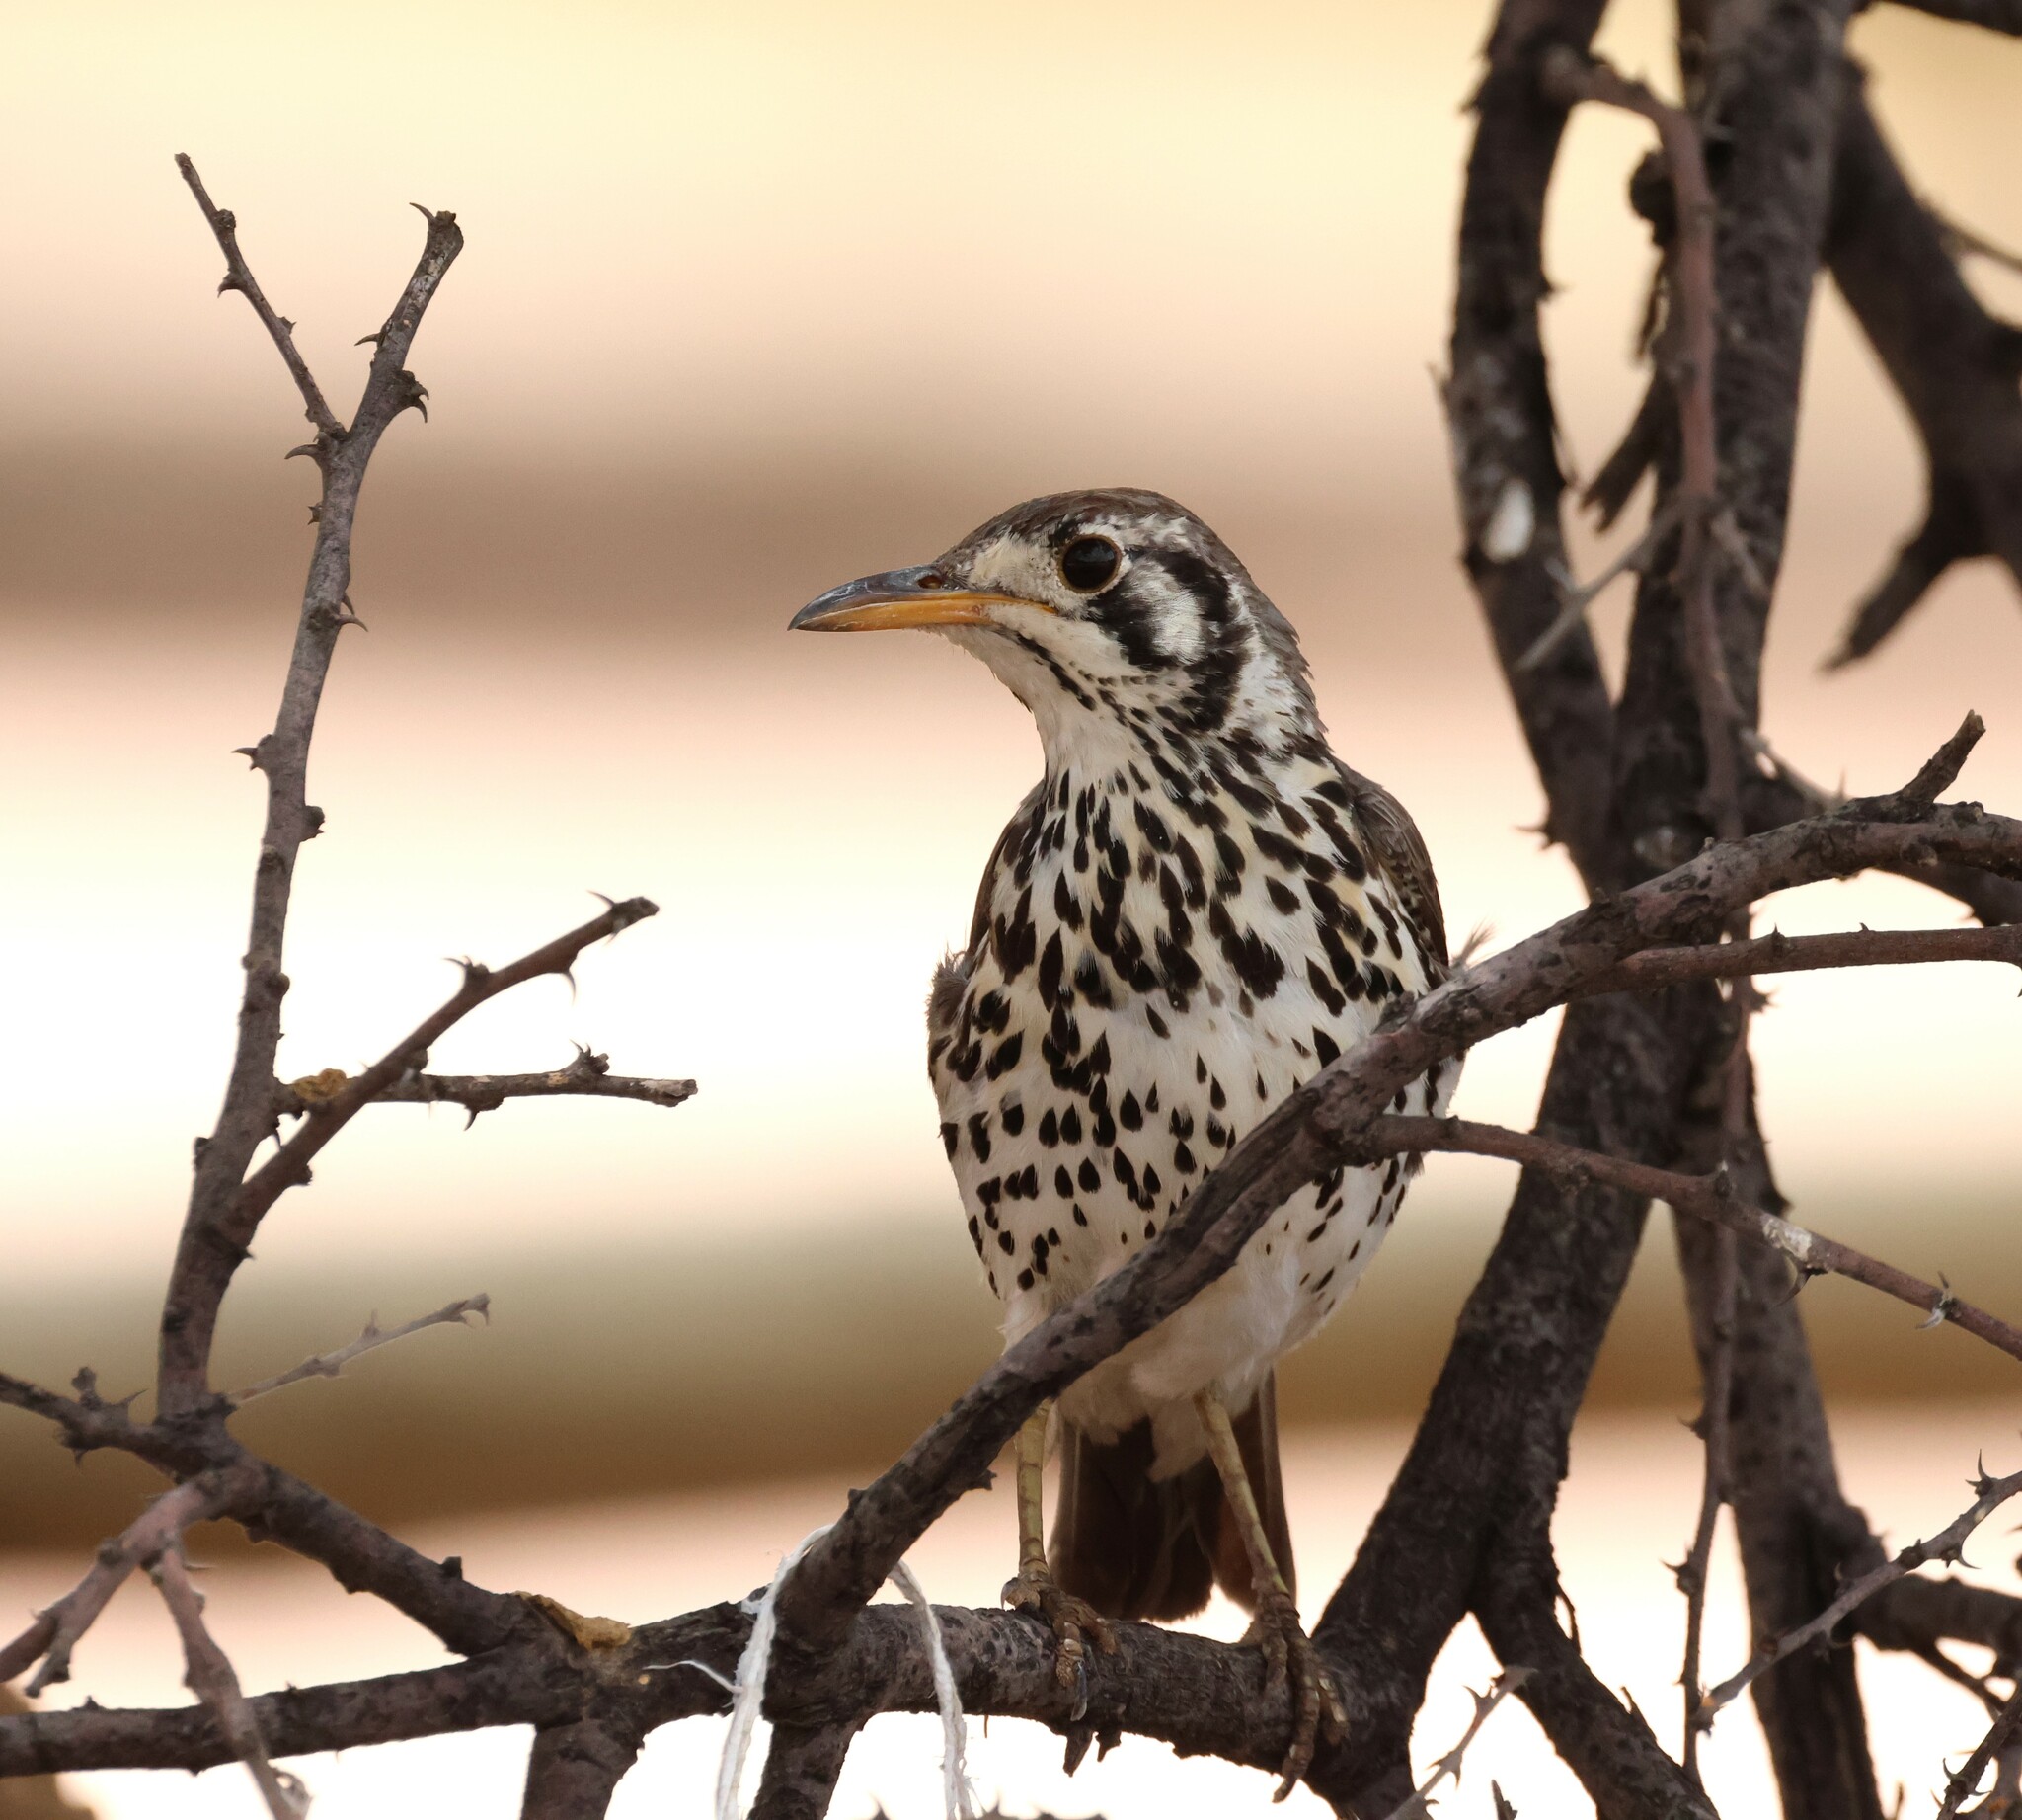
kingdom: Animalia
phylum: Chordata
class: Aves
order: Passeriformes
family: Turdidae
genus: Psophocichla
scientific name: Psophocichla litsitsirupa
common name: Groundscraper thrush
